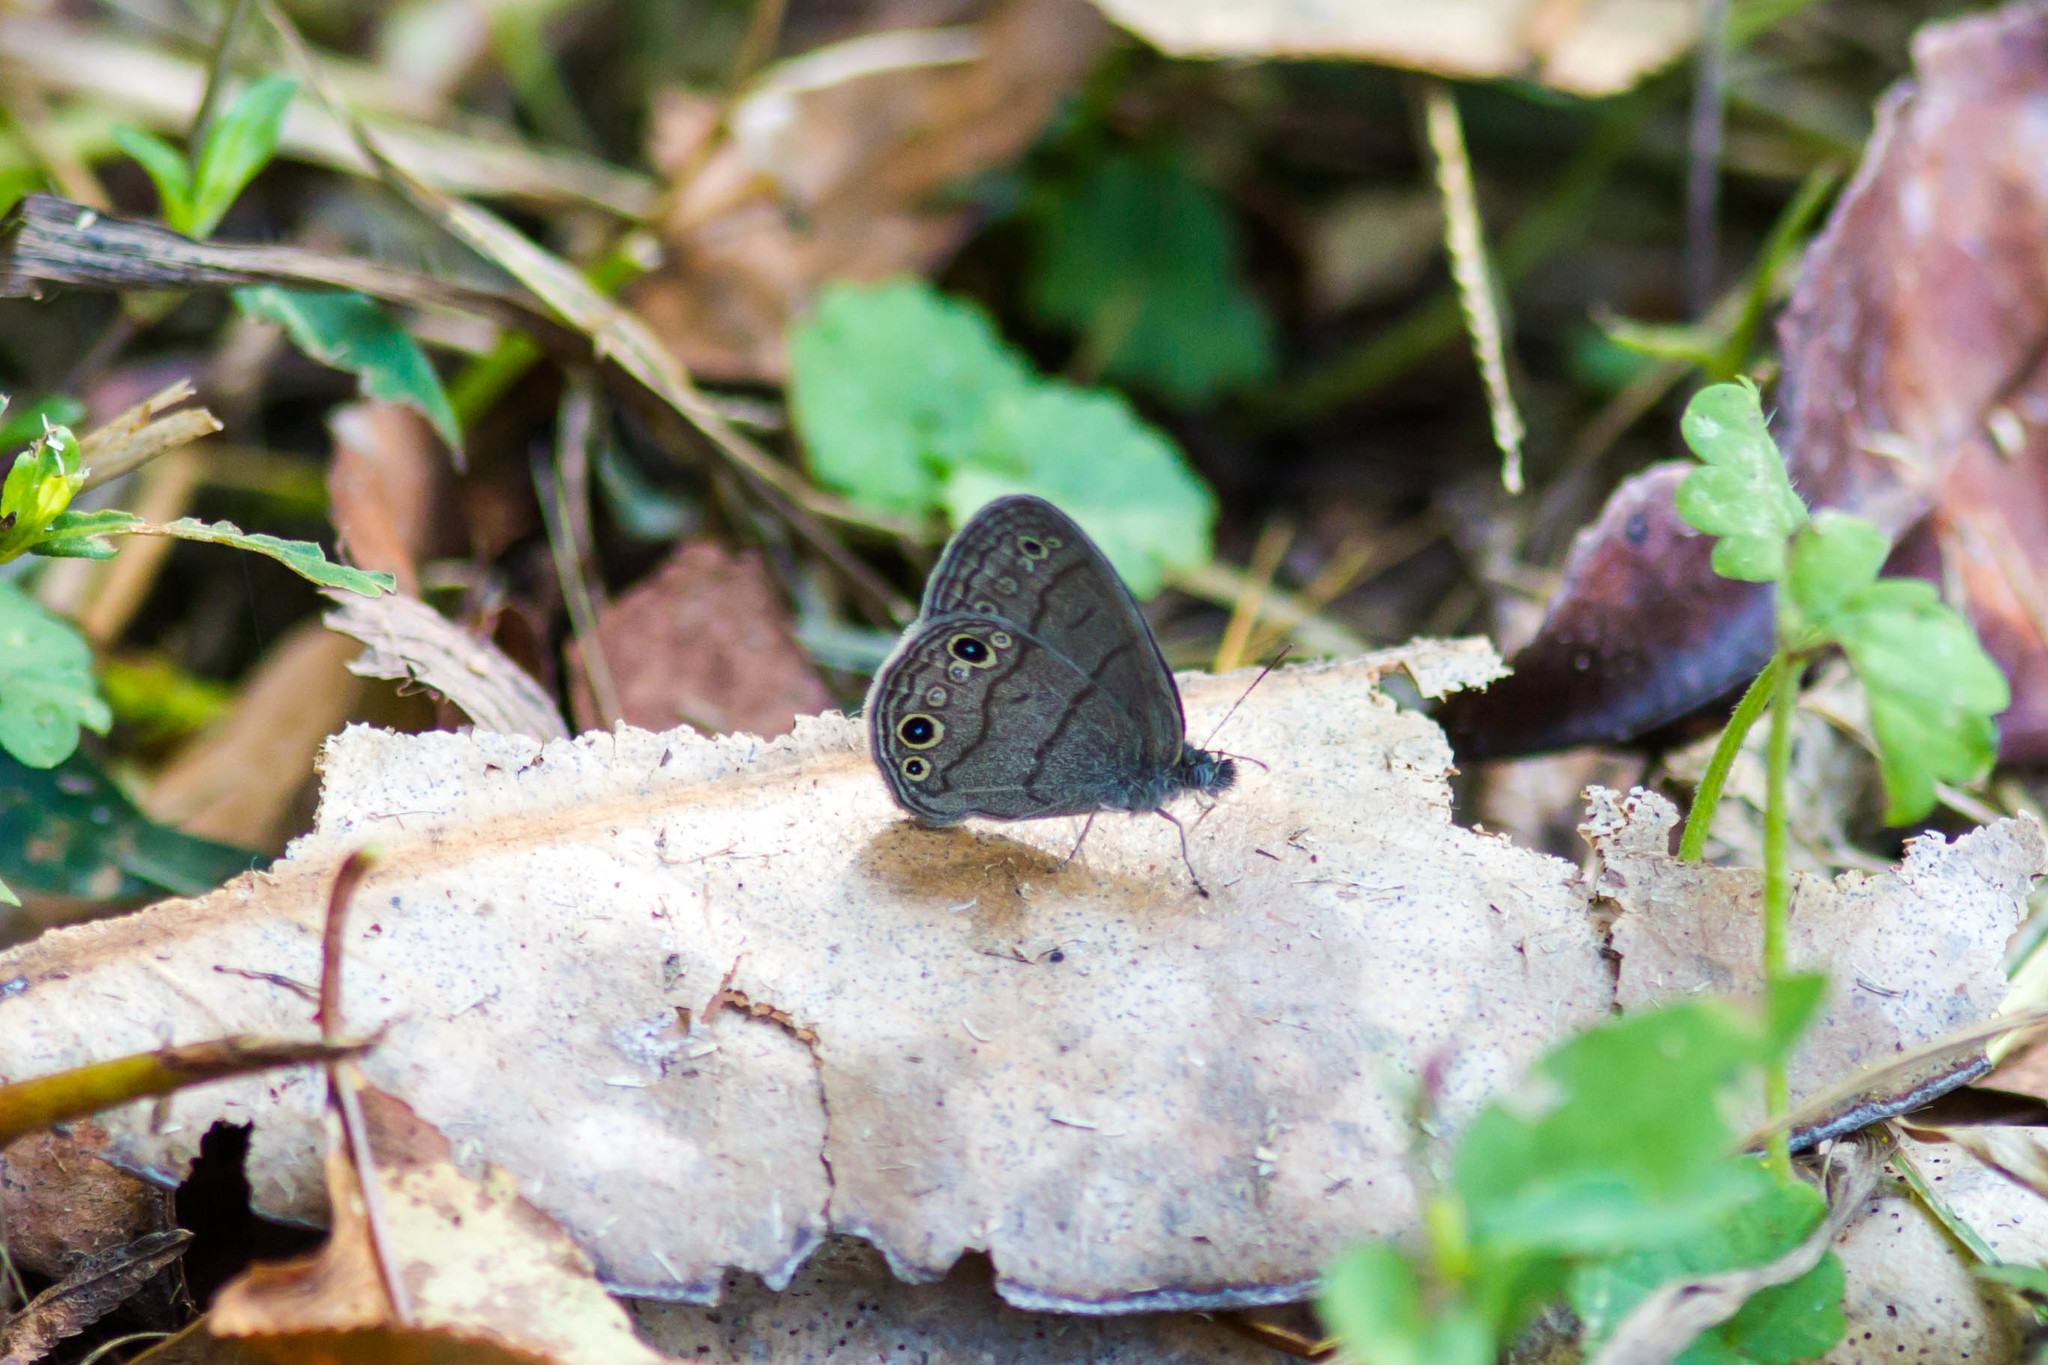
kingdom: Animalia
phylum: Arthropoda
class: Insecta
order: Lepidoptera
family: Nymphalidae
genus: Hermeuptychia
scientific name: Hermeuptychia hermes
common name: Hermes satyr
